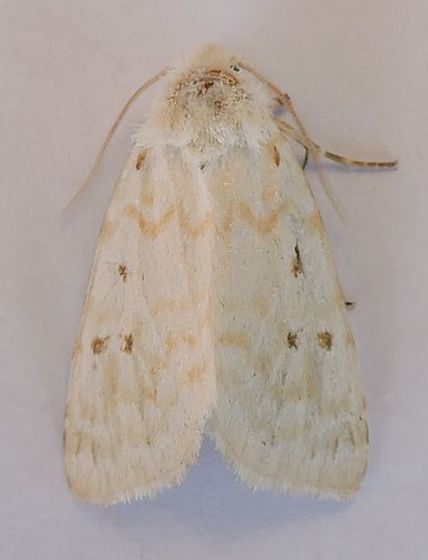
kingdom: Animalia
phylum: Arthropoda
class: Insecta
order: Lepidoptera
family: Noctuidae
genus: Lythrodes
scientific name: Lythrodes tripuncta
